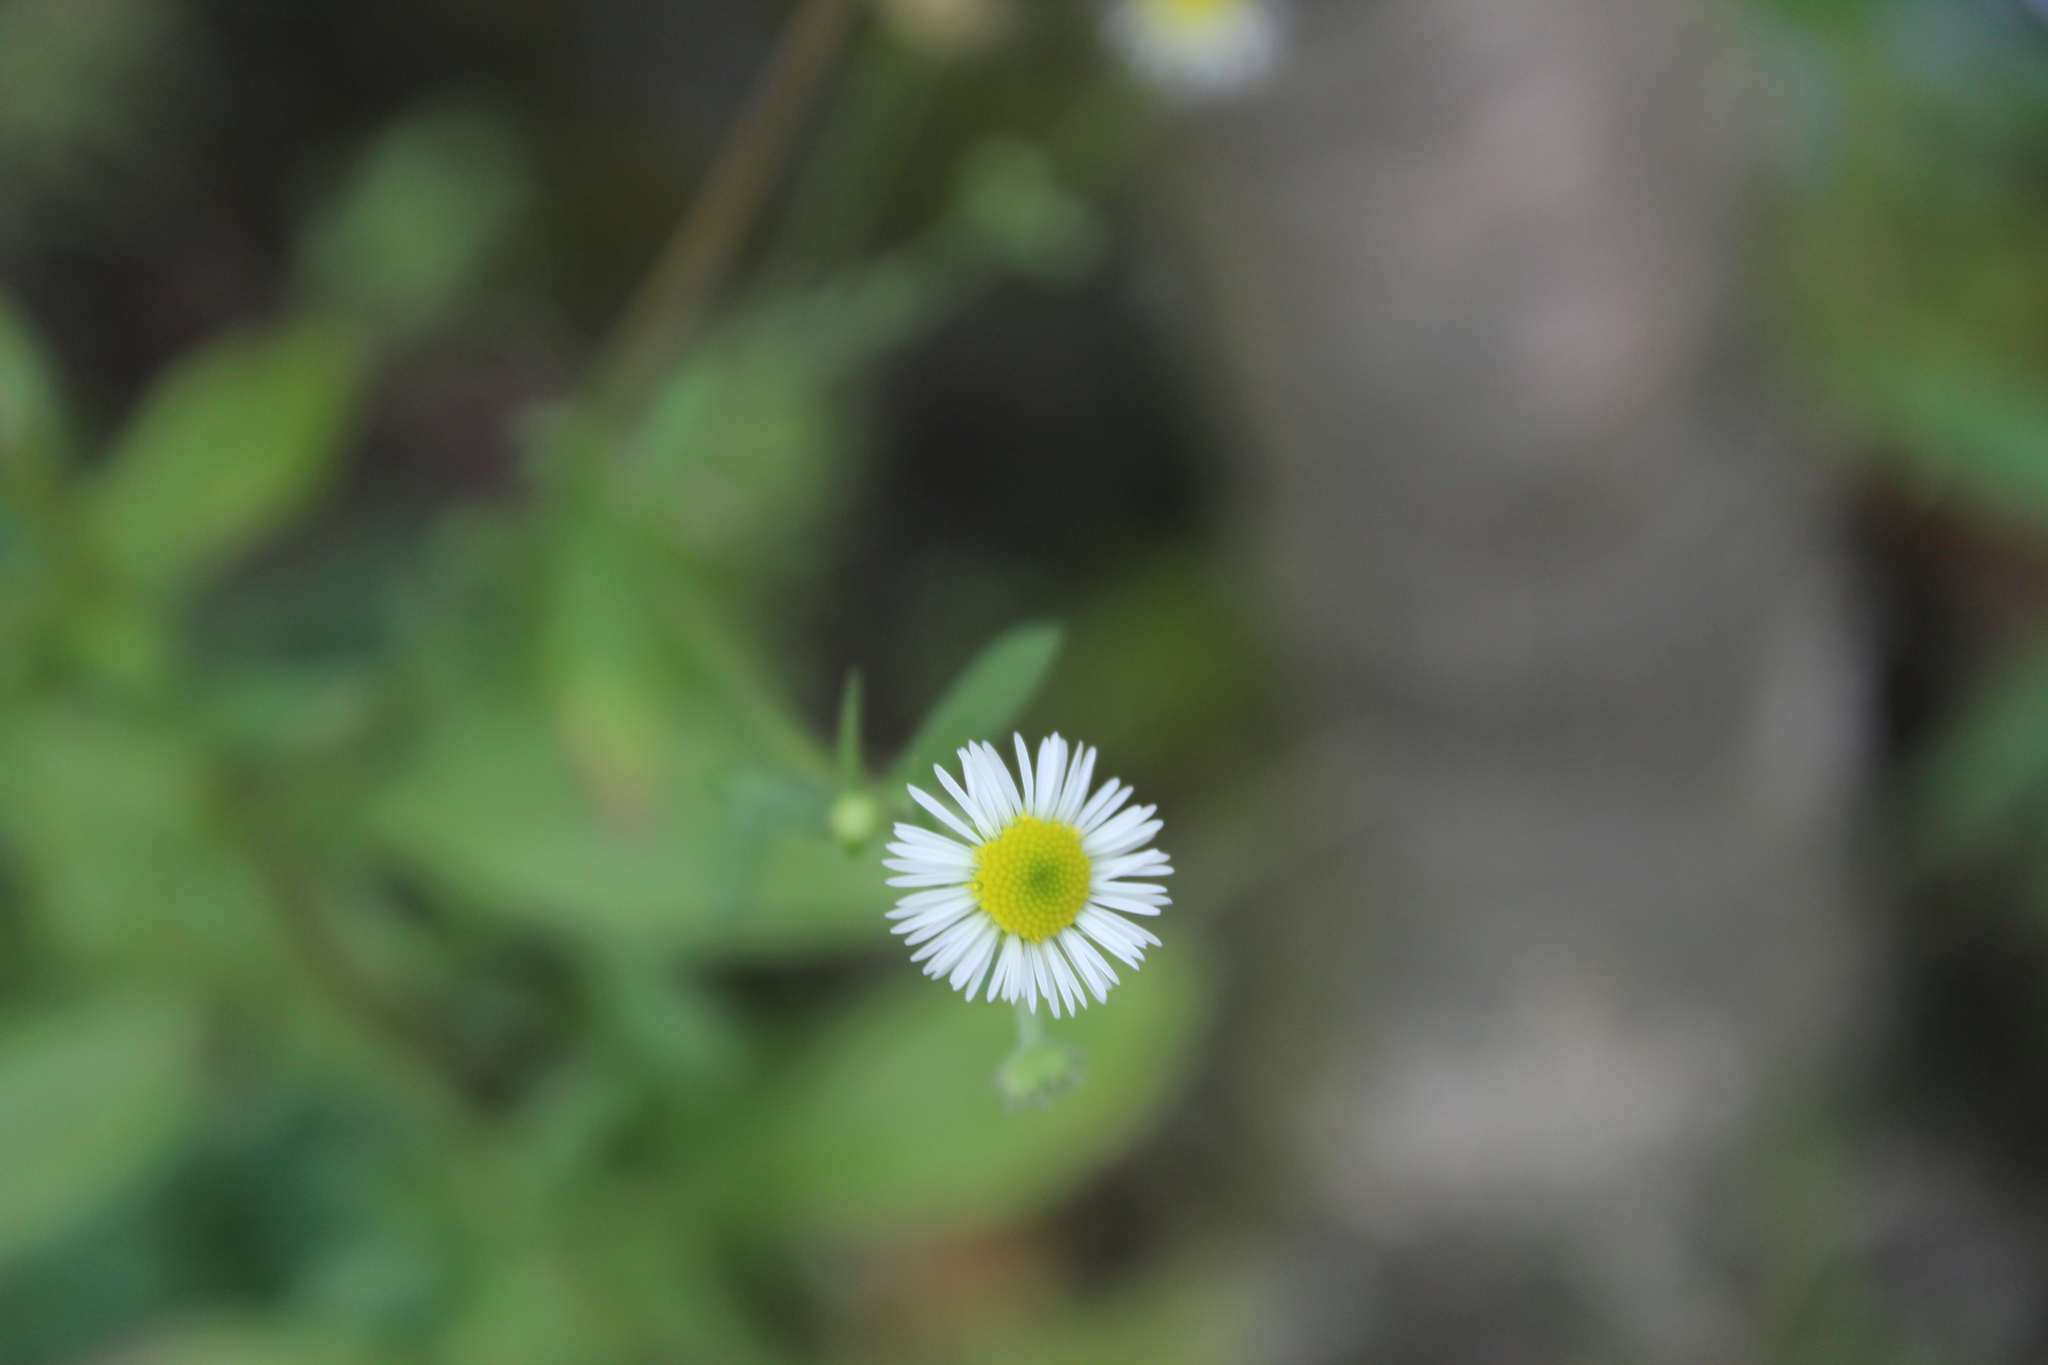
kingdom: Plantae
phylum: Tracheophyta
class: Magnoliopsida
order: Asterales
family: Asteraceae
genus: Erigeron
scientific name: Erigeron
